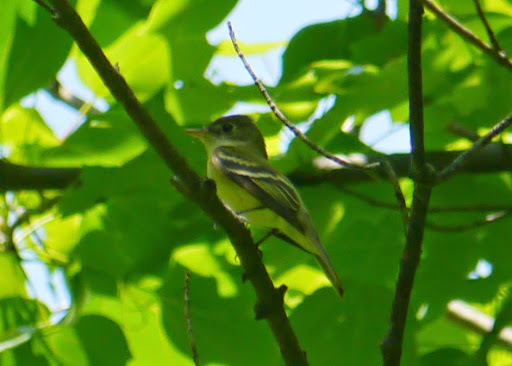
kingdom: Animalia
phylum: Chordata
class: Aves
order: Passeriformes
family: Tyrannidae
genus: Empidonax
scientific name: Empidonax virescens
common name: Acadian flycatcher
